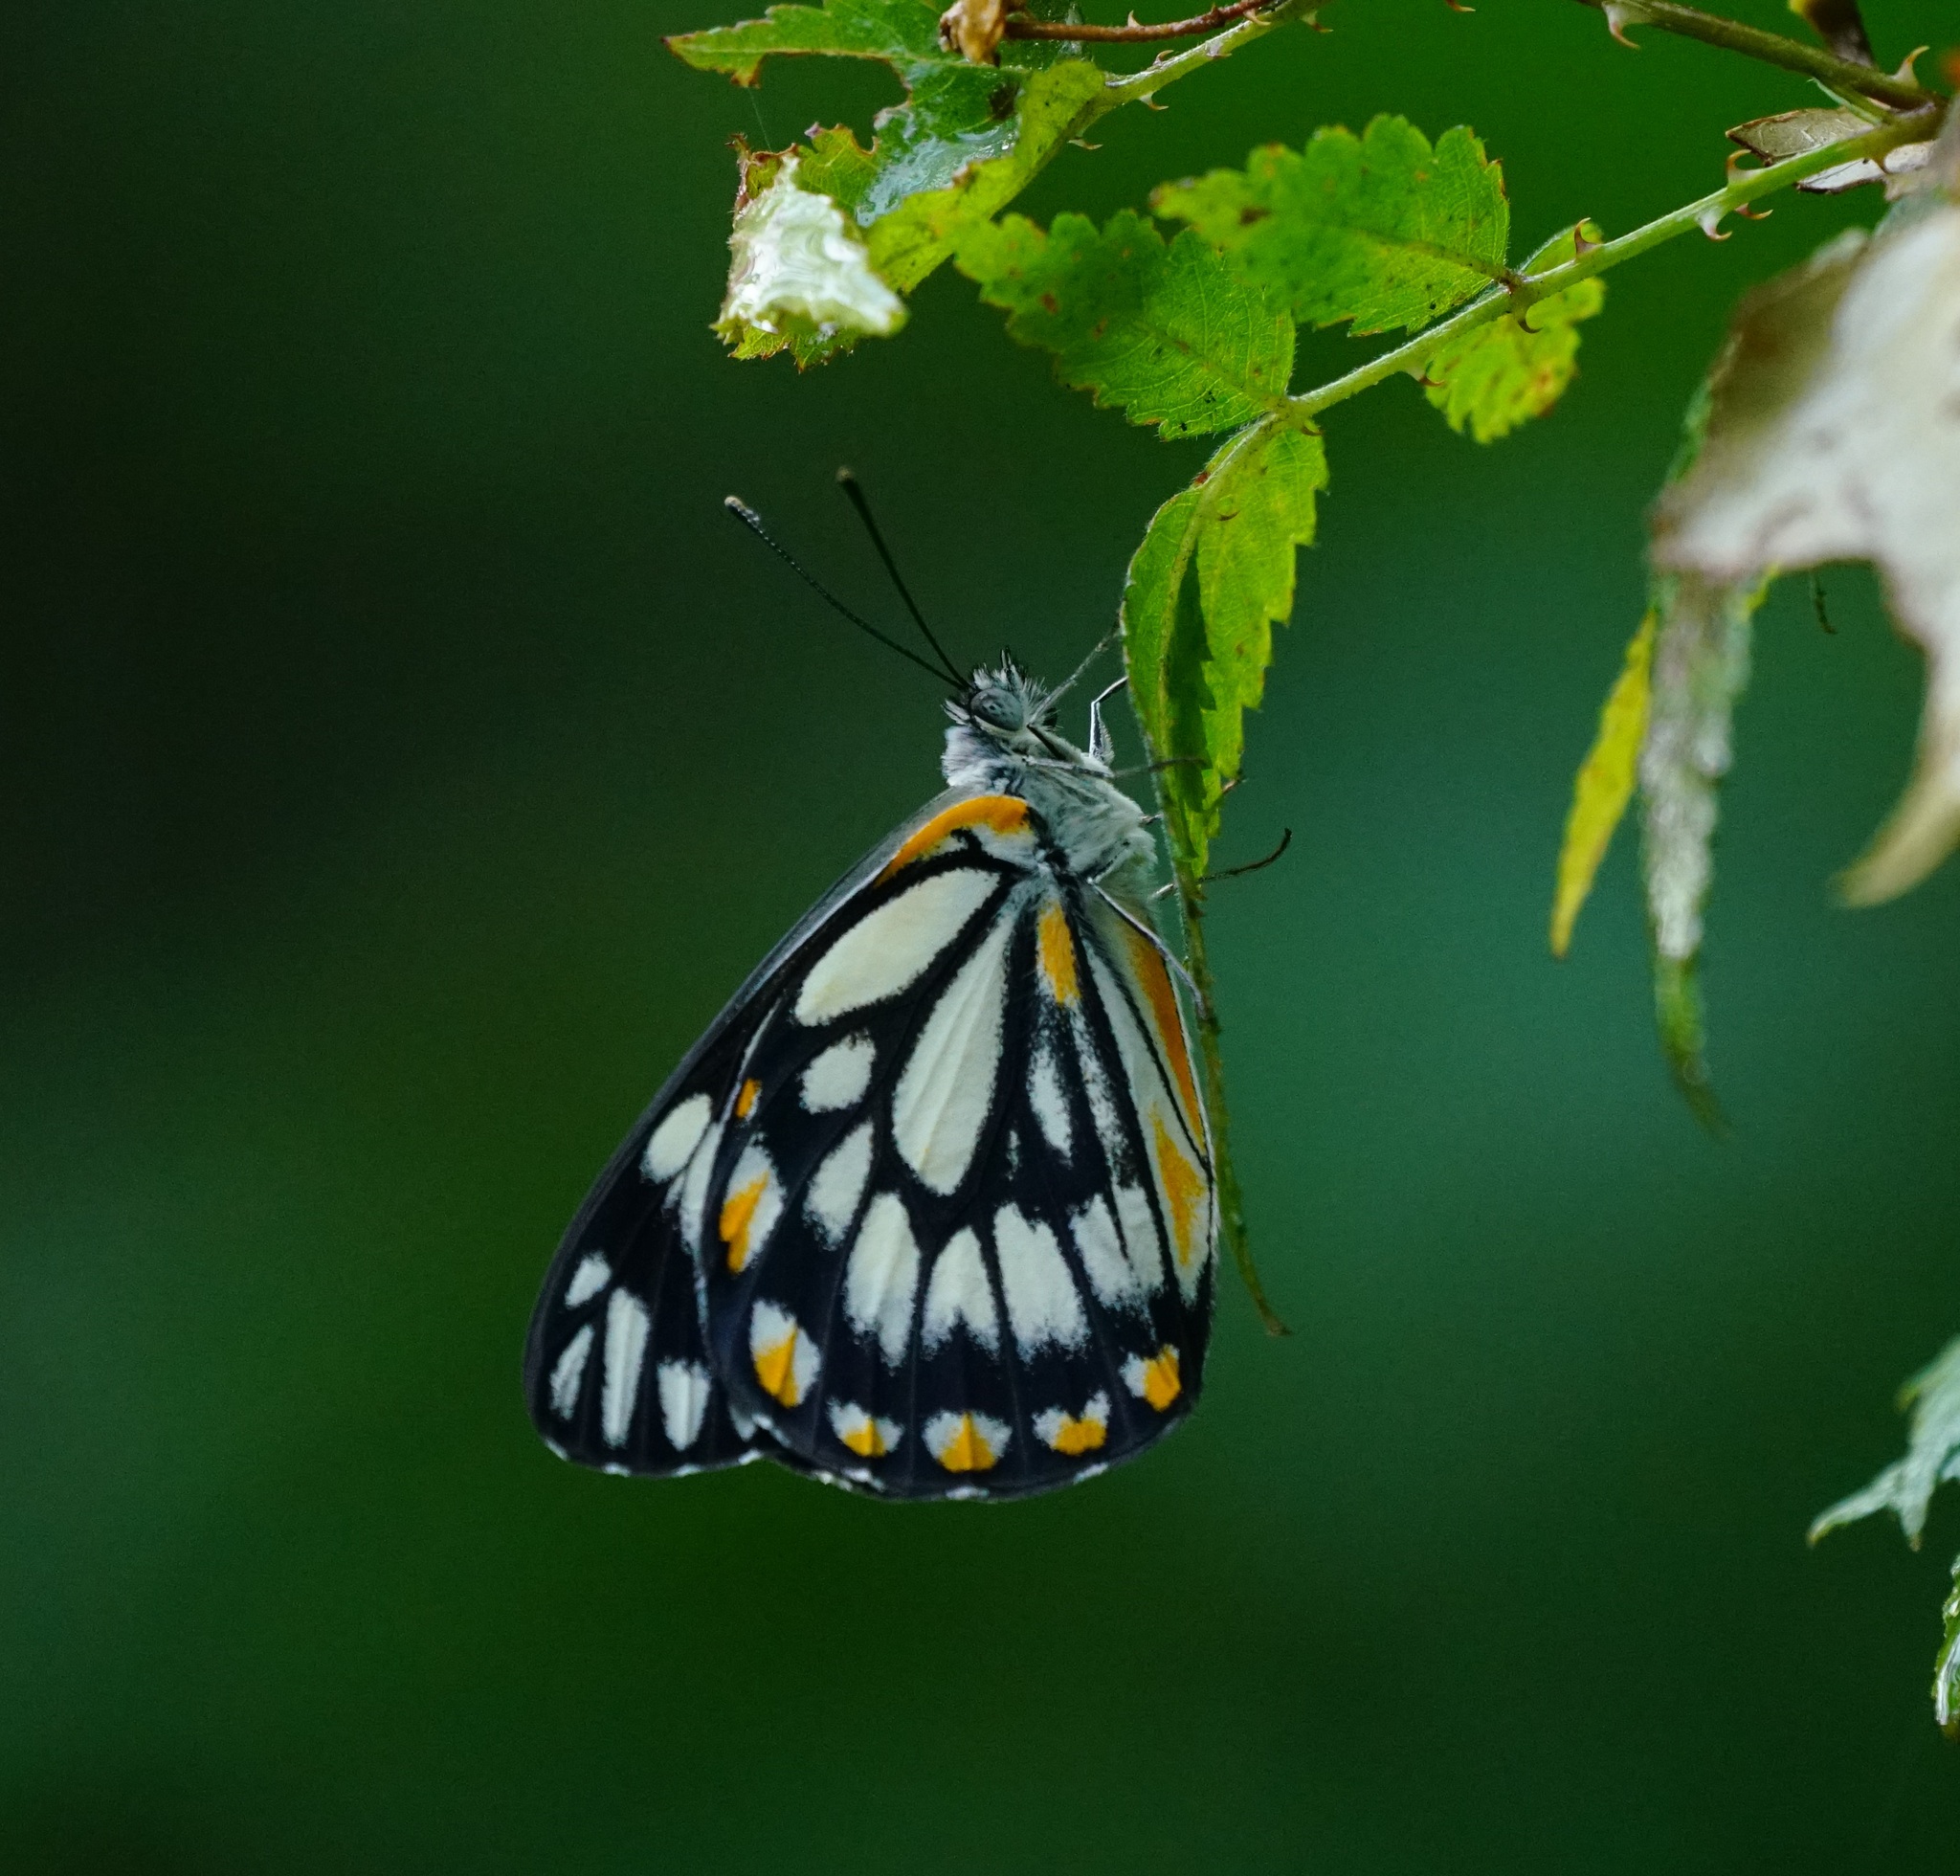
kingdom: Animalia
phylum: Arthropoda
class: Insecta
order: Lepidoptera
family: Pieridae
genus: Belenois
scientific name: Belenois java
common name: Caper white
